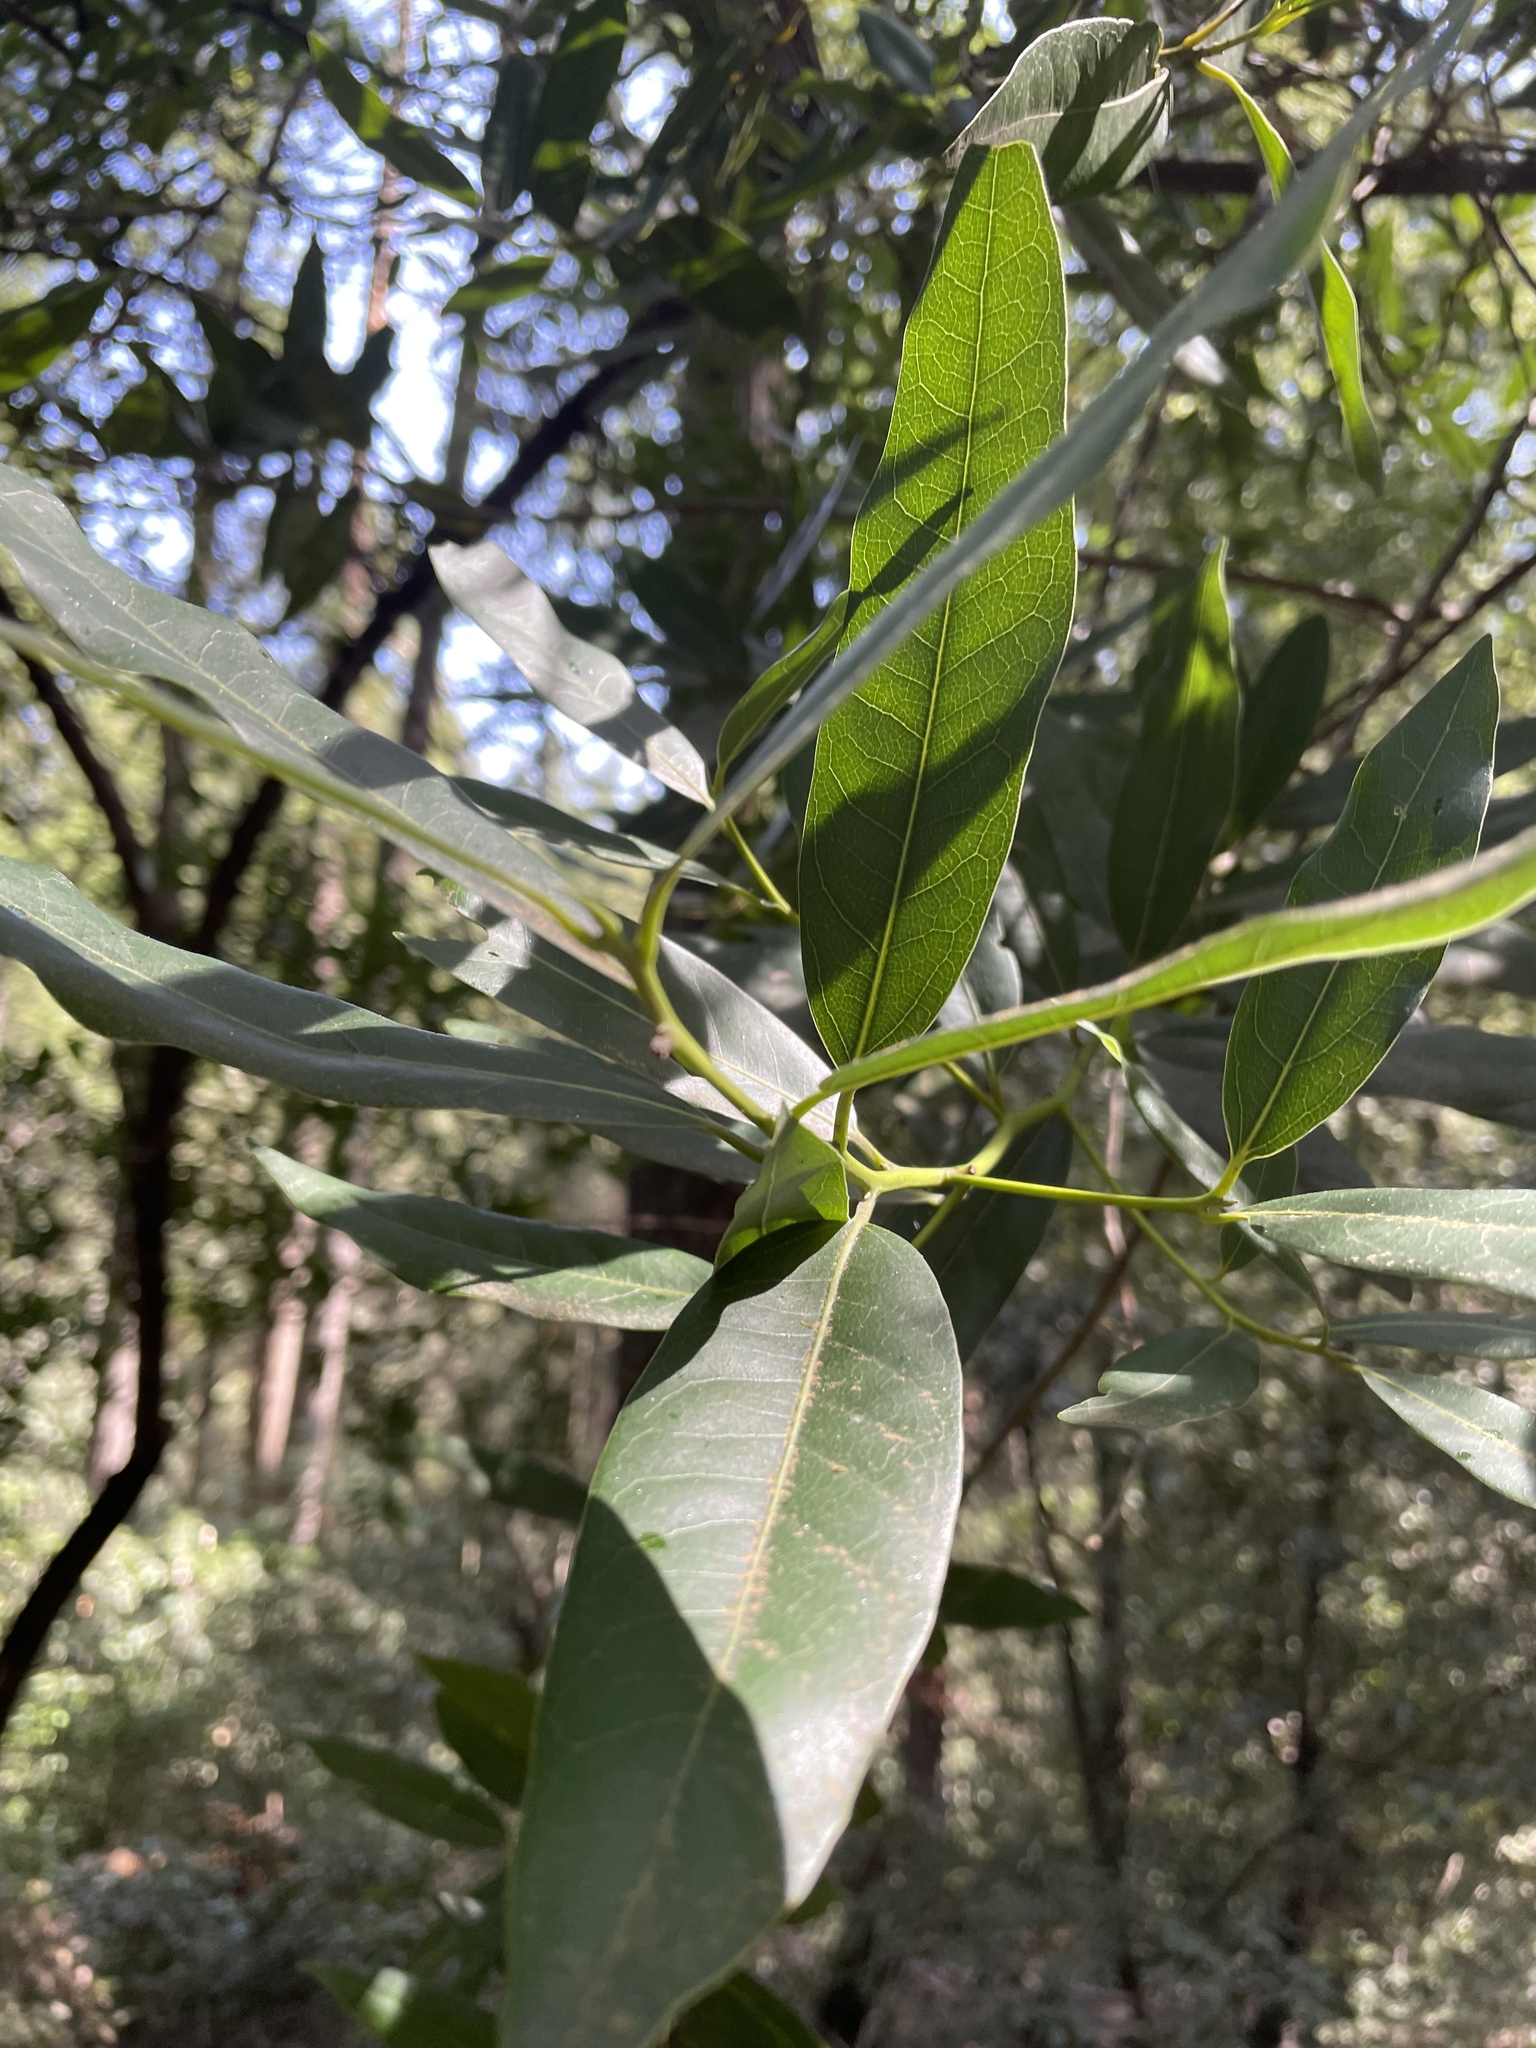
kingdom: Plantae
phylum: Tracheophyta
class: Magnoliopsida
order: Laurales
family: Lauraceae
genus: Umbellularia
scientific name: Umbellularia californica
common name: California bay
